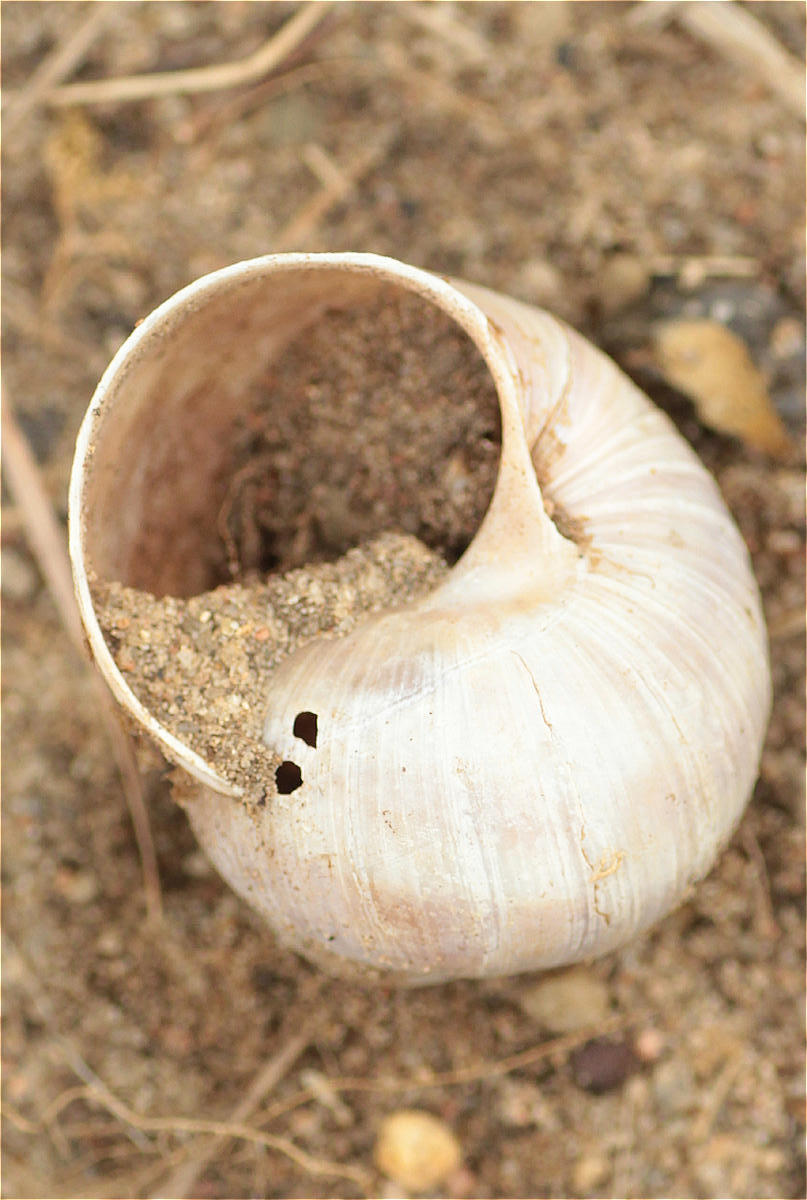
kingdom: Animalia
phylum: Mollusca
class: Gastropoda
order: Stylommatophora
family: Helicidae
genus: Helix
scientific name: Helix pomatia
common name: Roman snail
